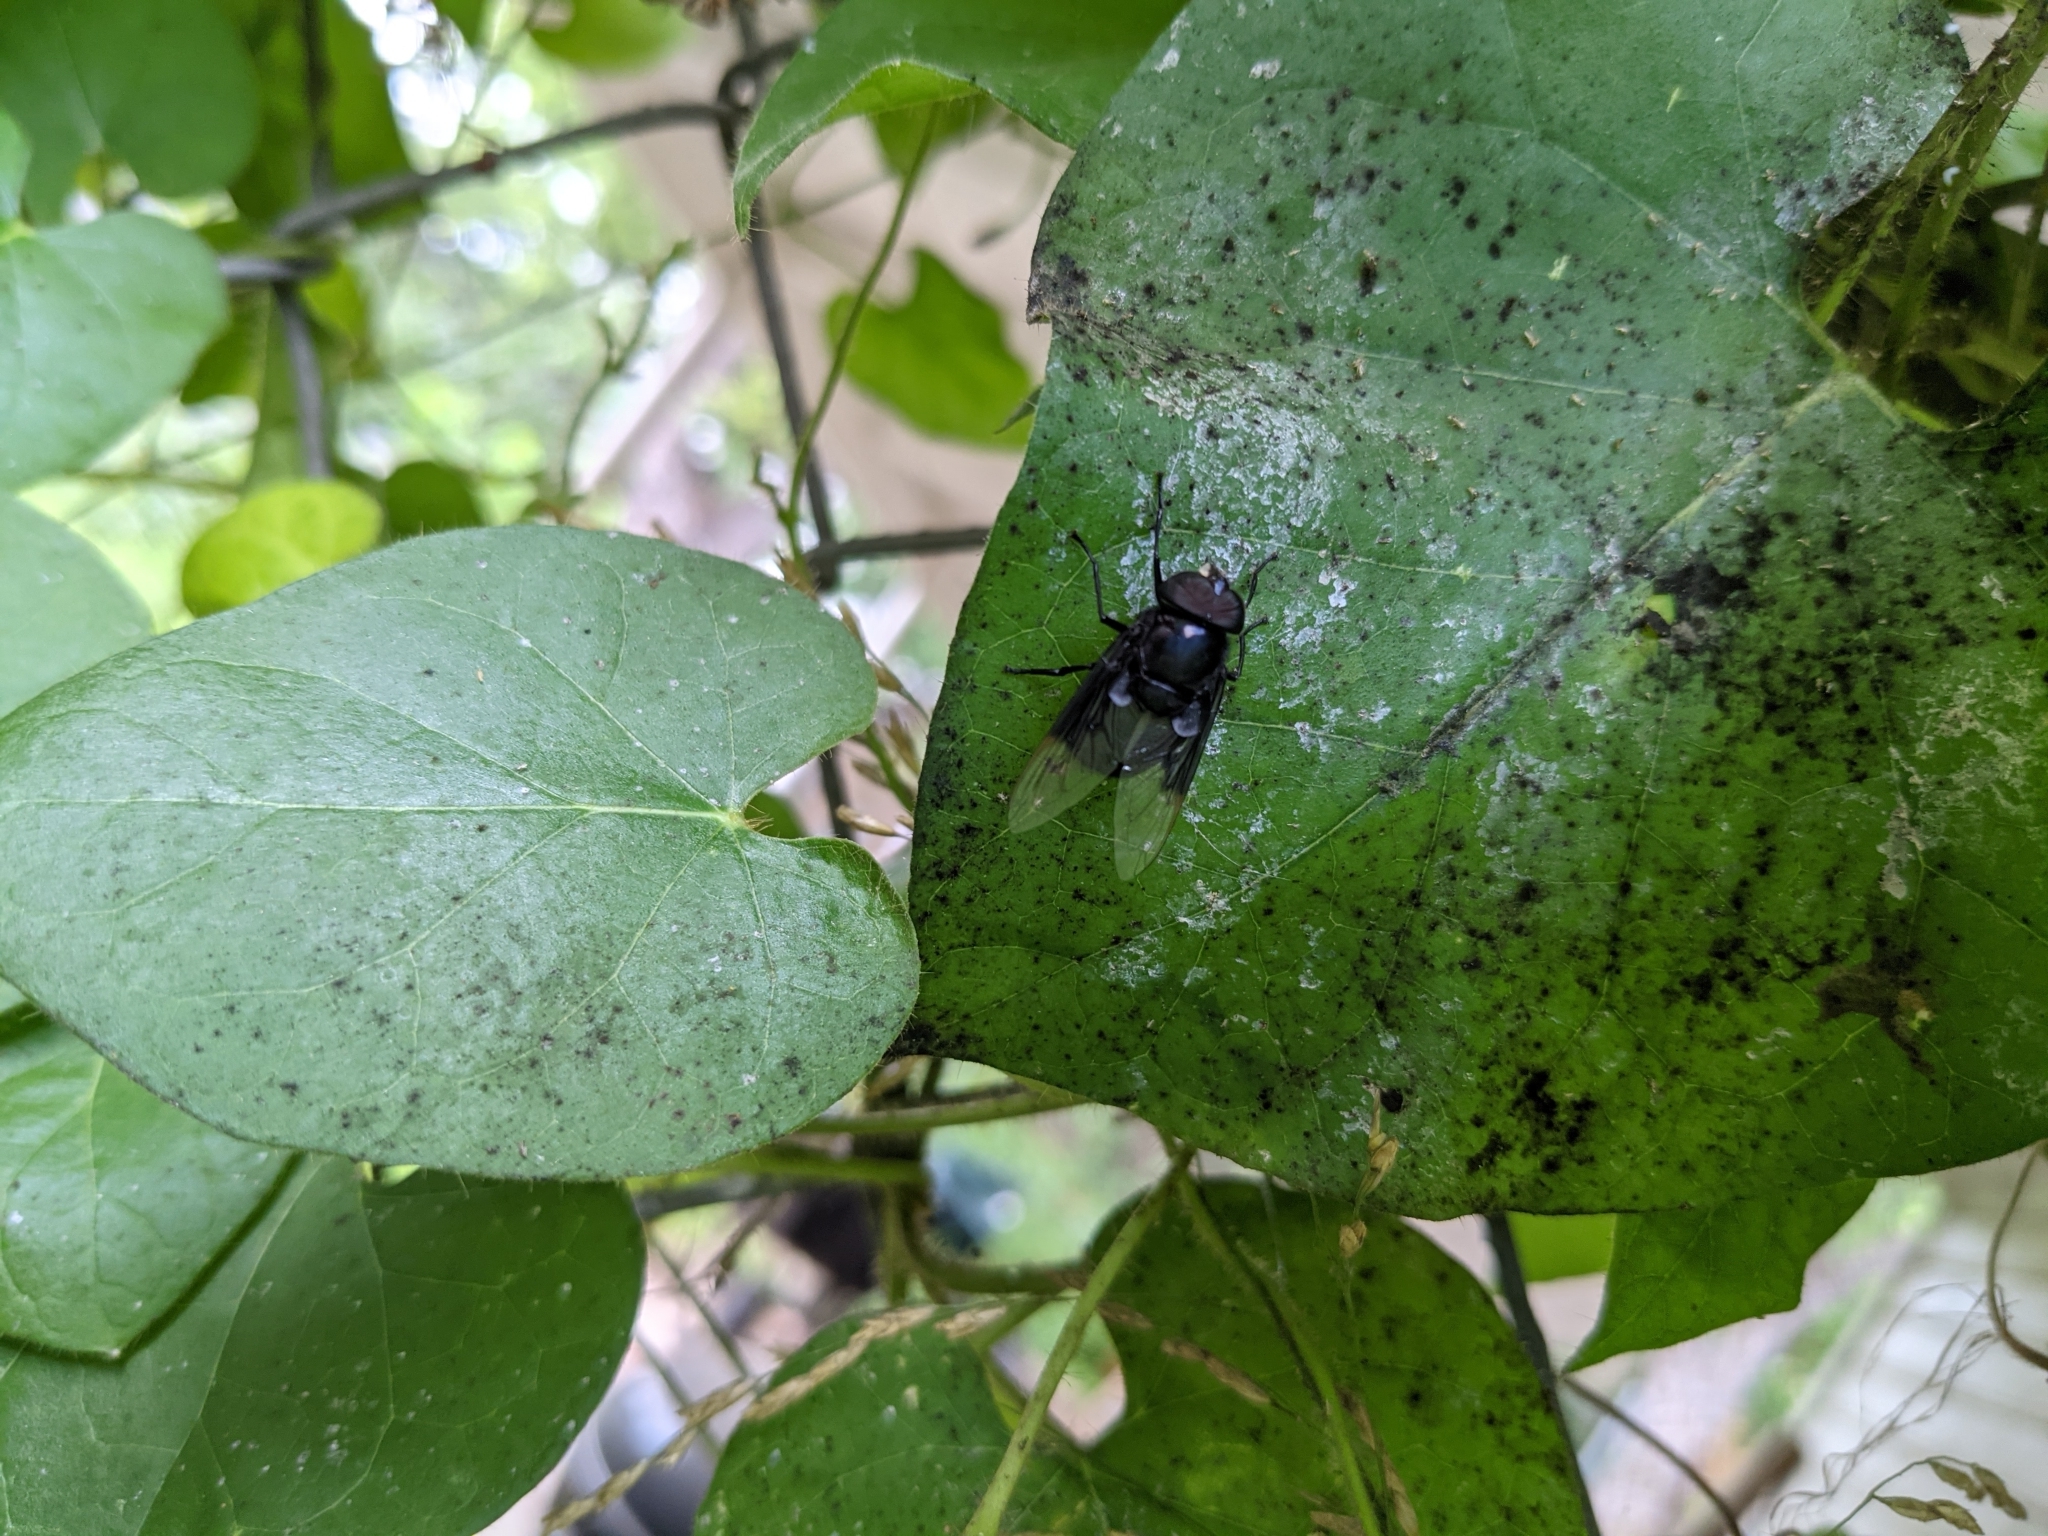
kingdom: Animalia
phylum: Arthropoda
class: Insecta
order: Diptera
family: Syrphidae
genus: Copestylum
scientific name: Copestylum mexicanum
